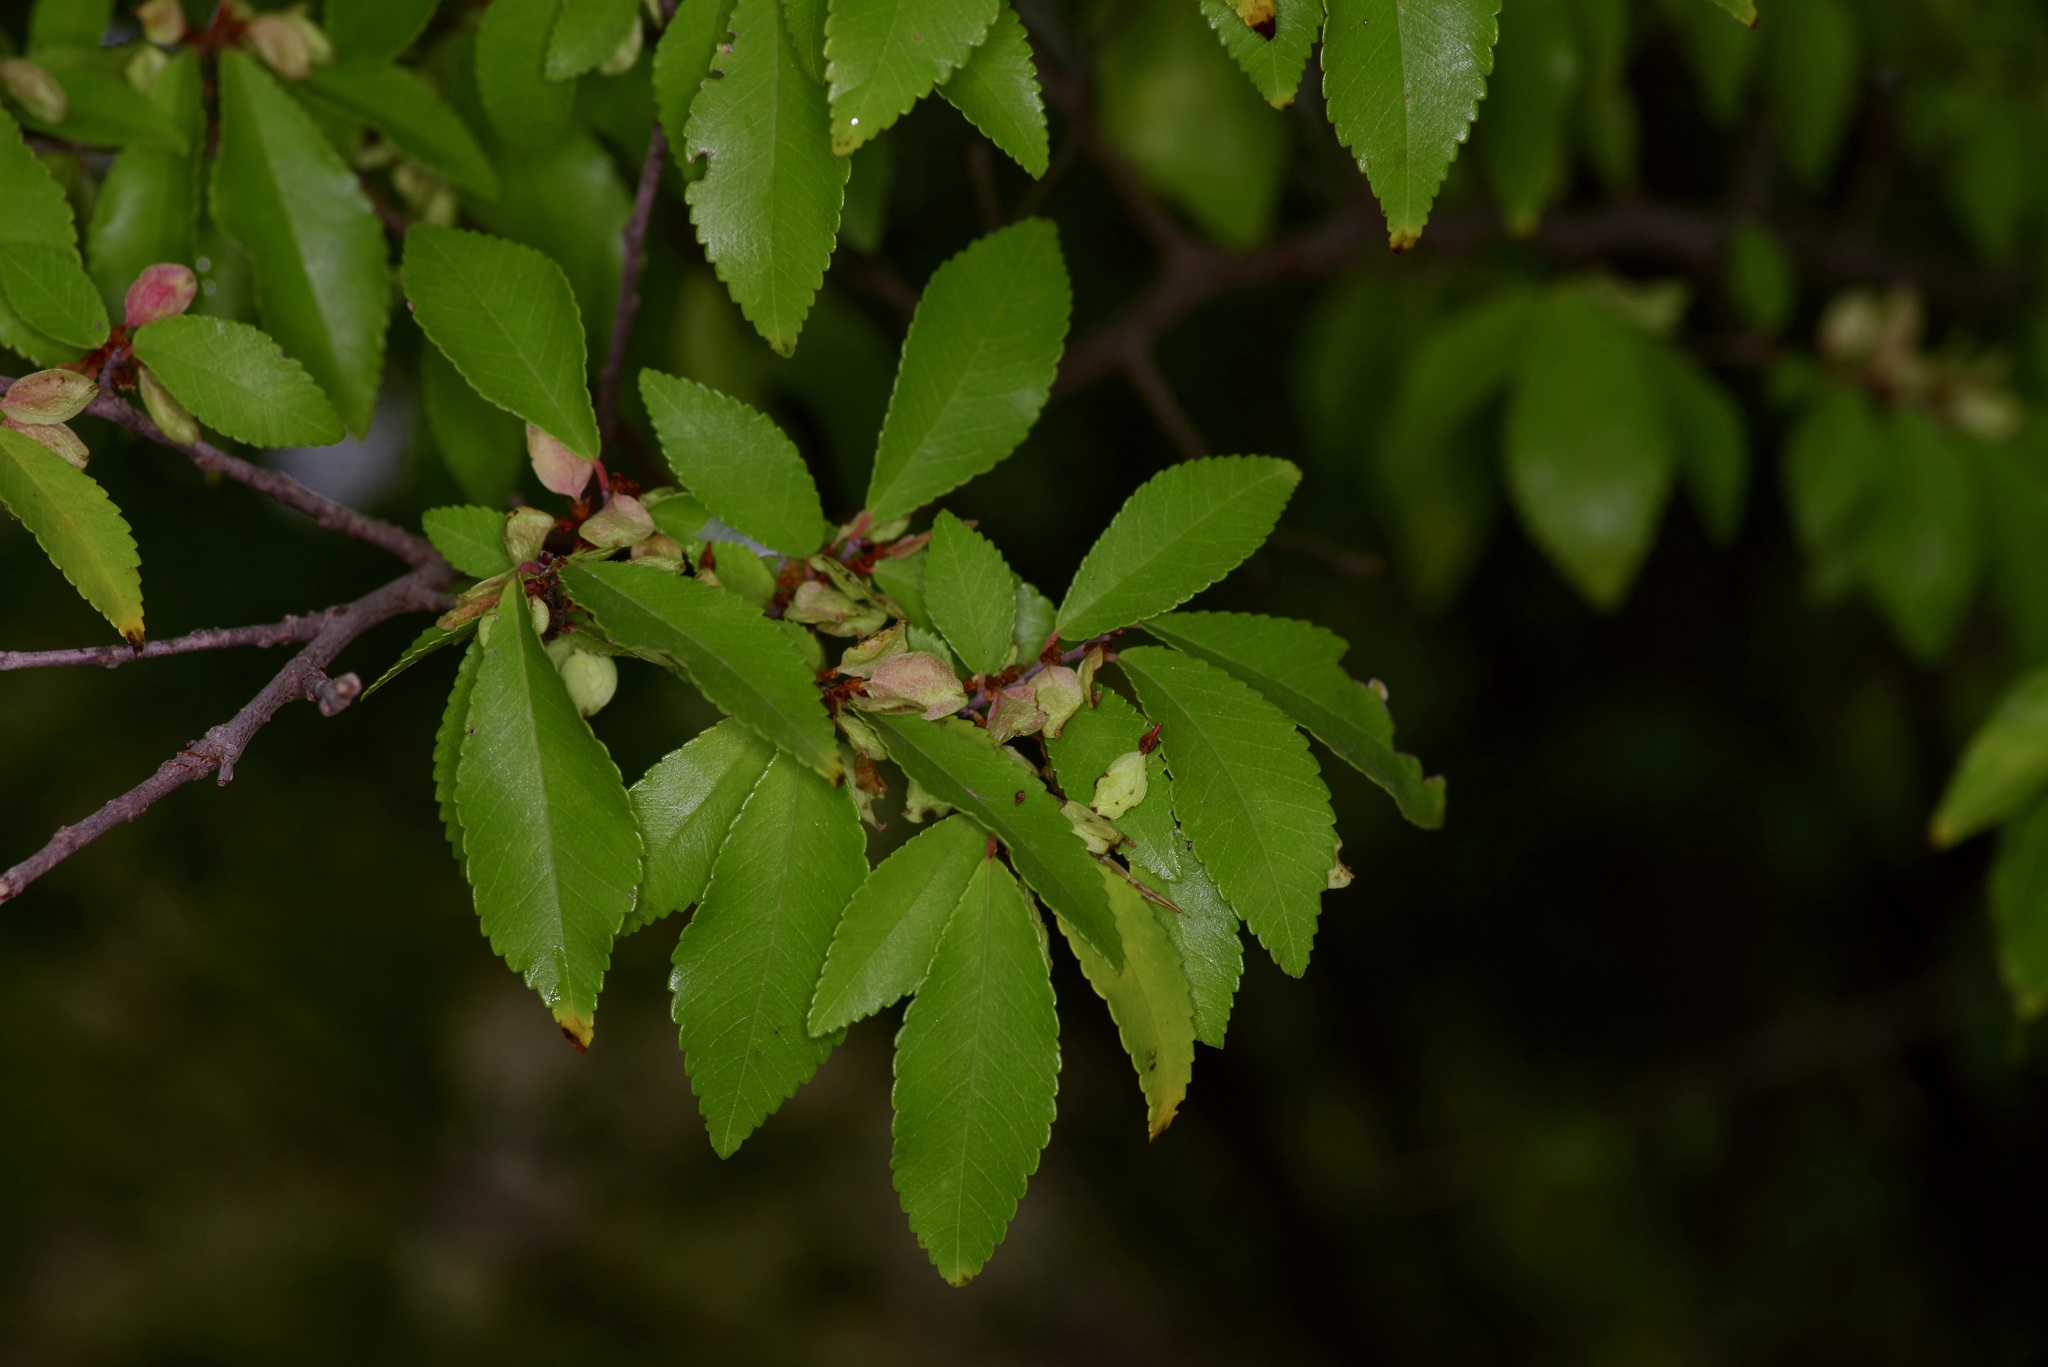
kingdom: Plantae
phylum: Tracheophyta
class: Magnoliopsida
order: Rosales
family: Ulmaceae
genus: Ulmus
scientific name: Ulmus parvifolia
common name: Chinese elm
